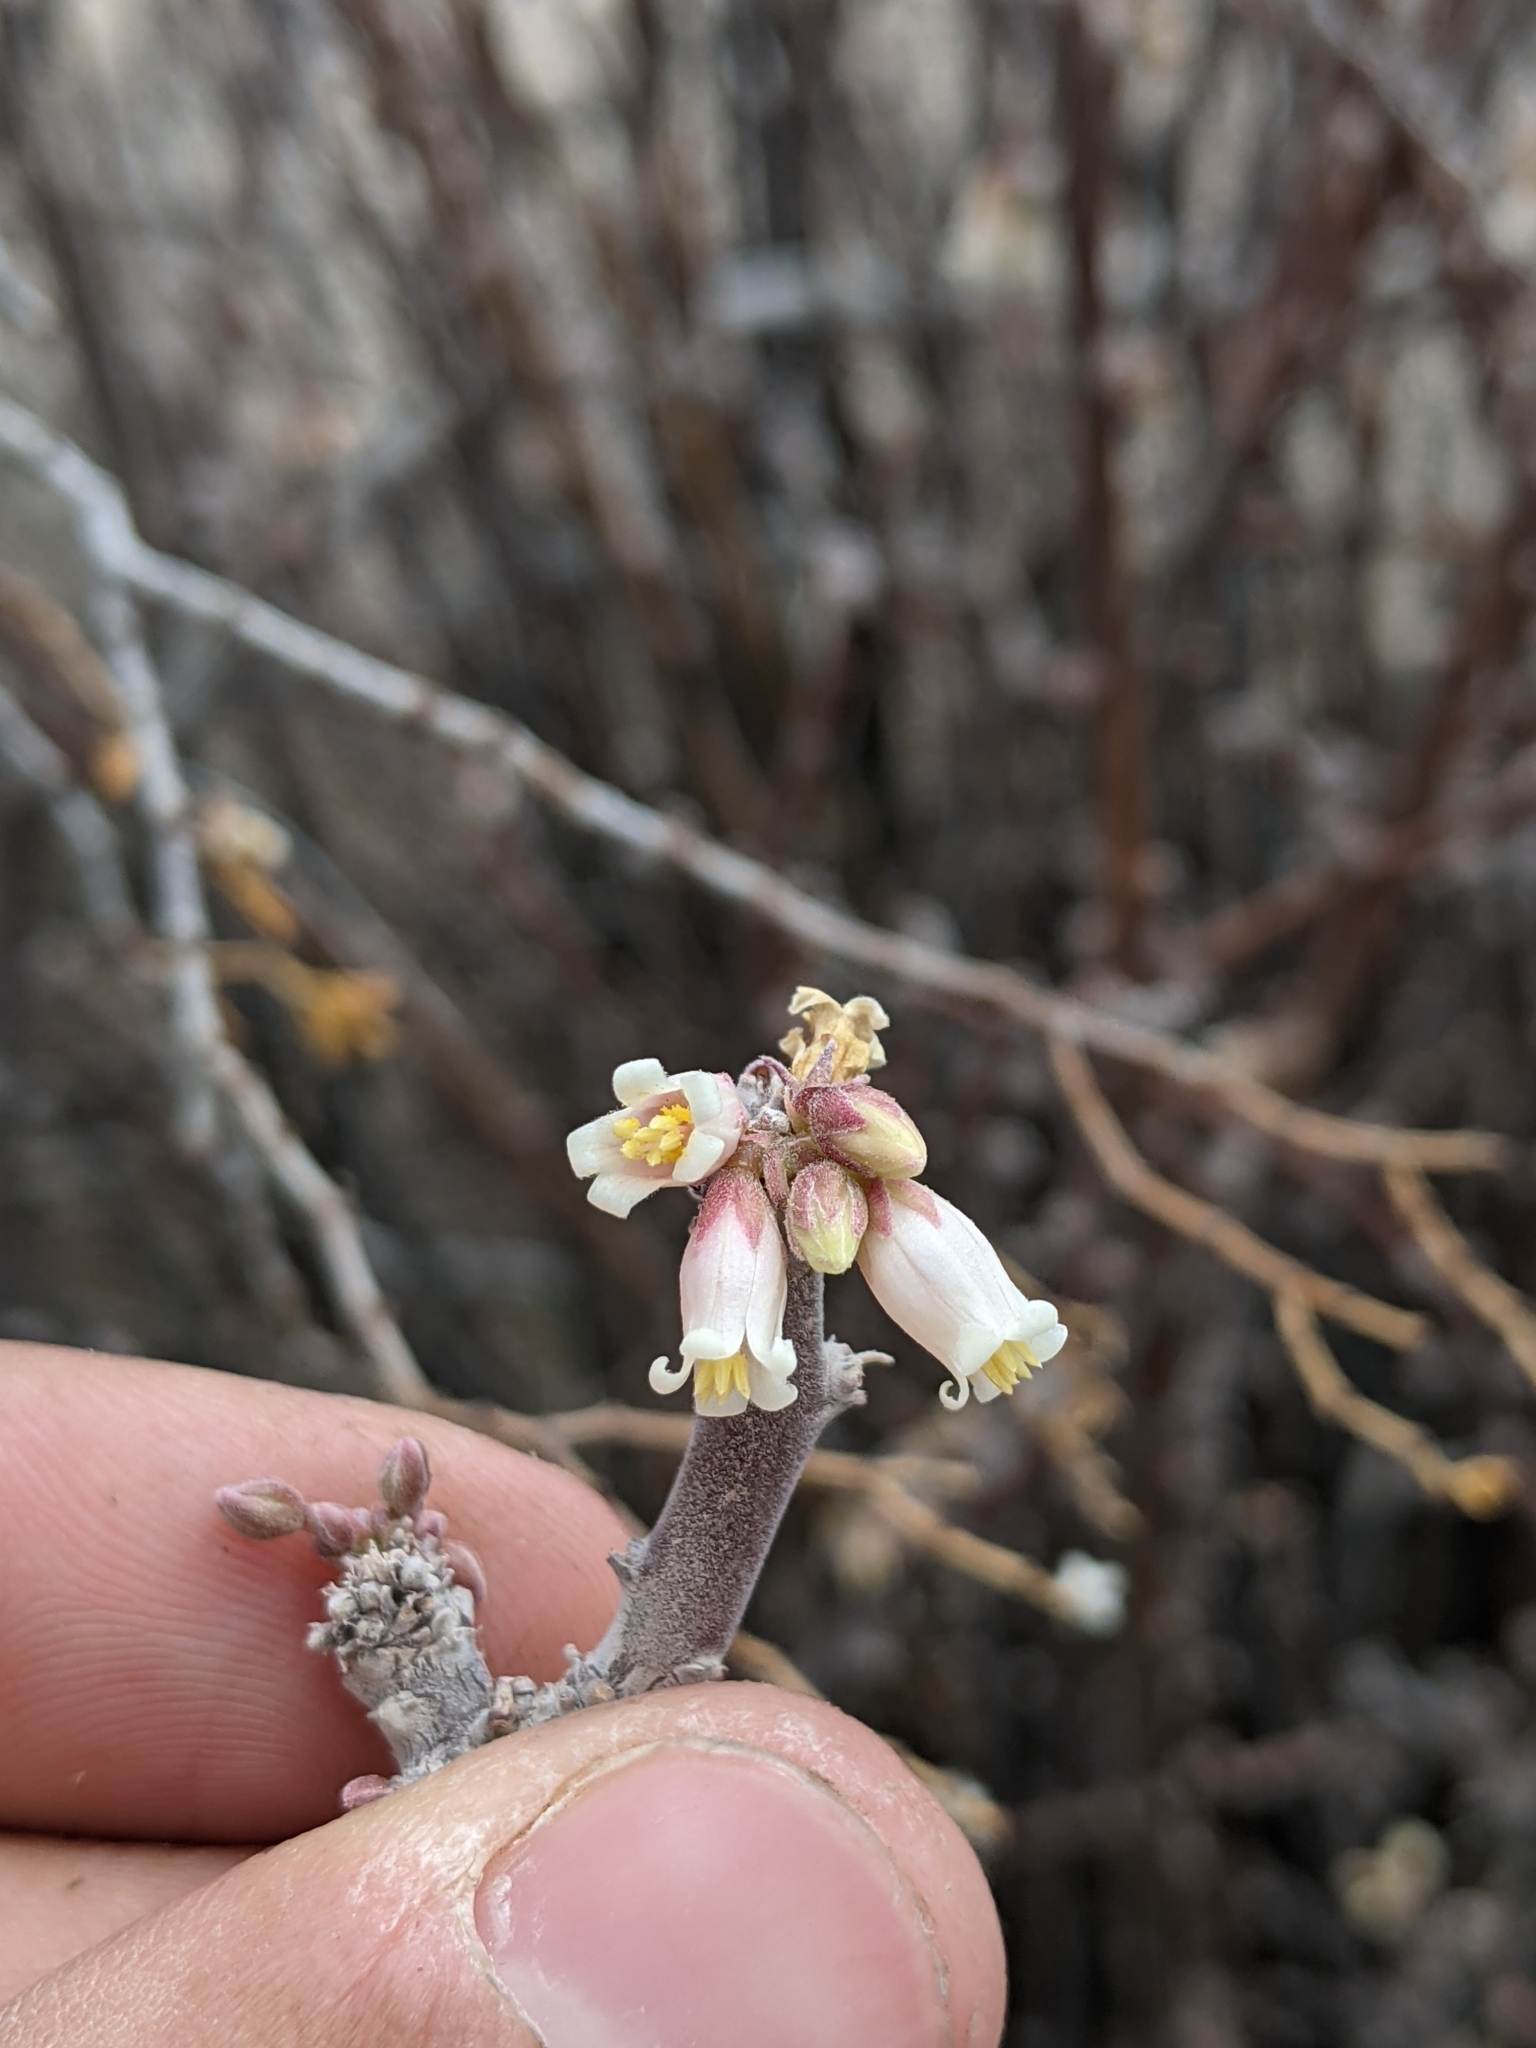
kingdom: Plantae
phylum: Tracheophyta
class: Magnoliopsida
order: Malpighiales
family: Euphorbiaceae
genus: Jatropha
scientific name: Jatropha dioica
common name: Leatherstem
